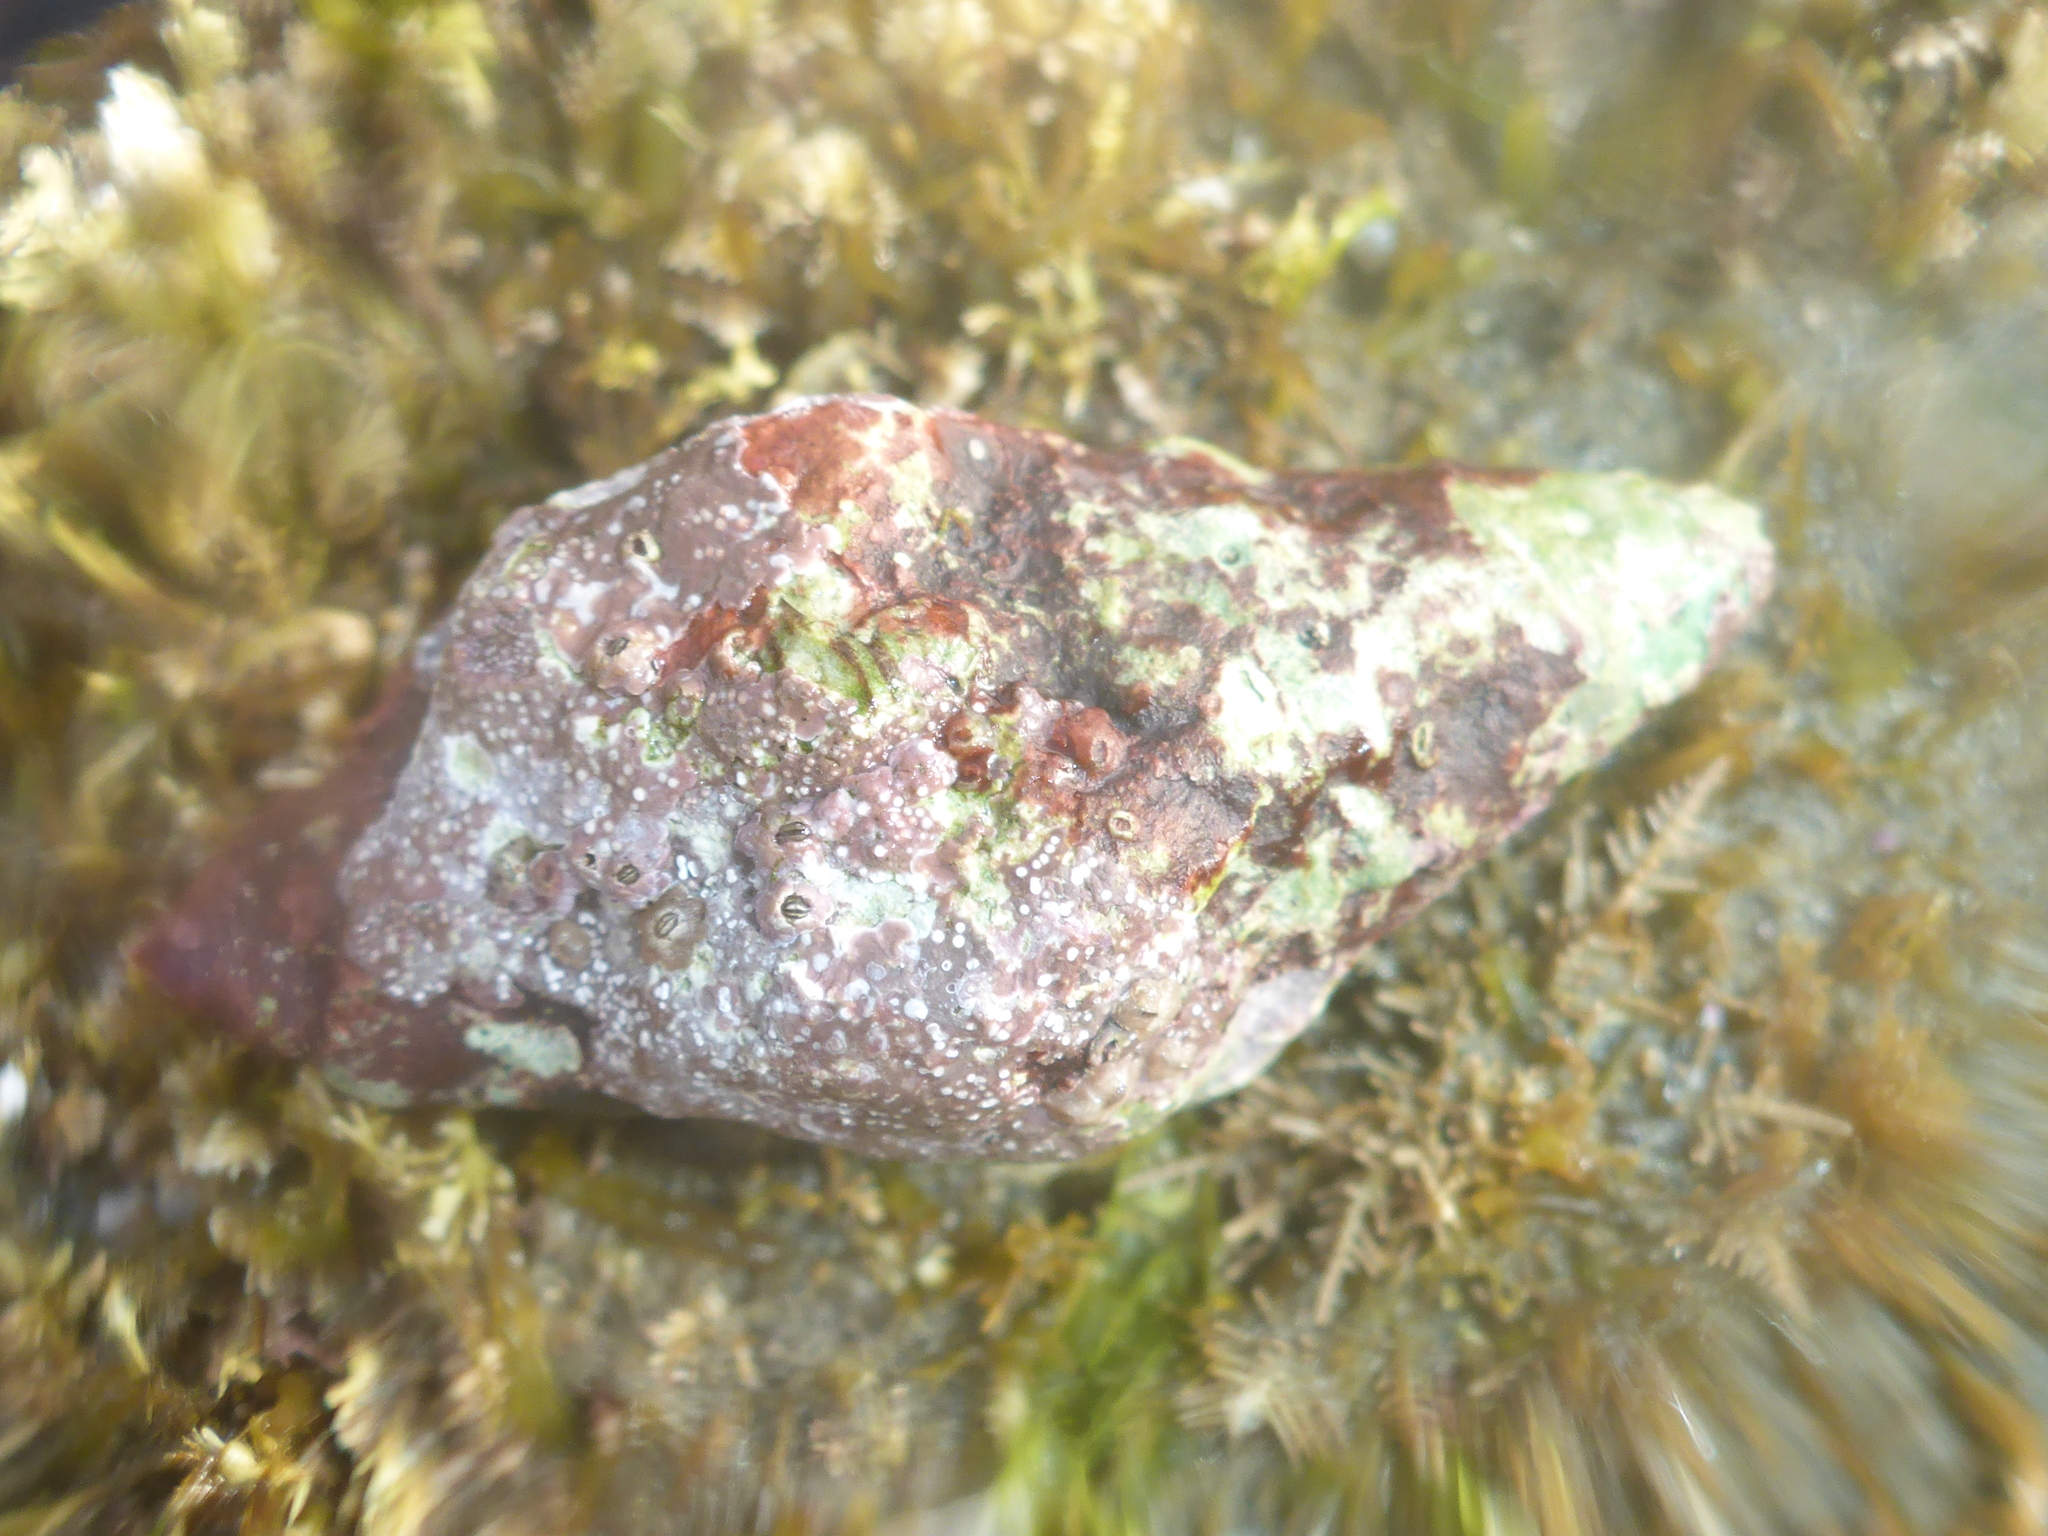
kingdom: Animalia
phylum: Mollusca
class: Gastropoda
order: Neogastropoda
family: Muricidae
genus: Roperia
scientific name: Roperia poulsoni
